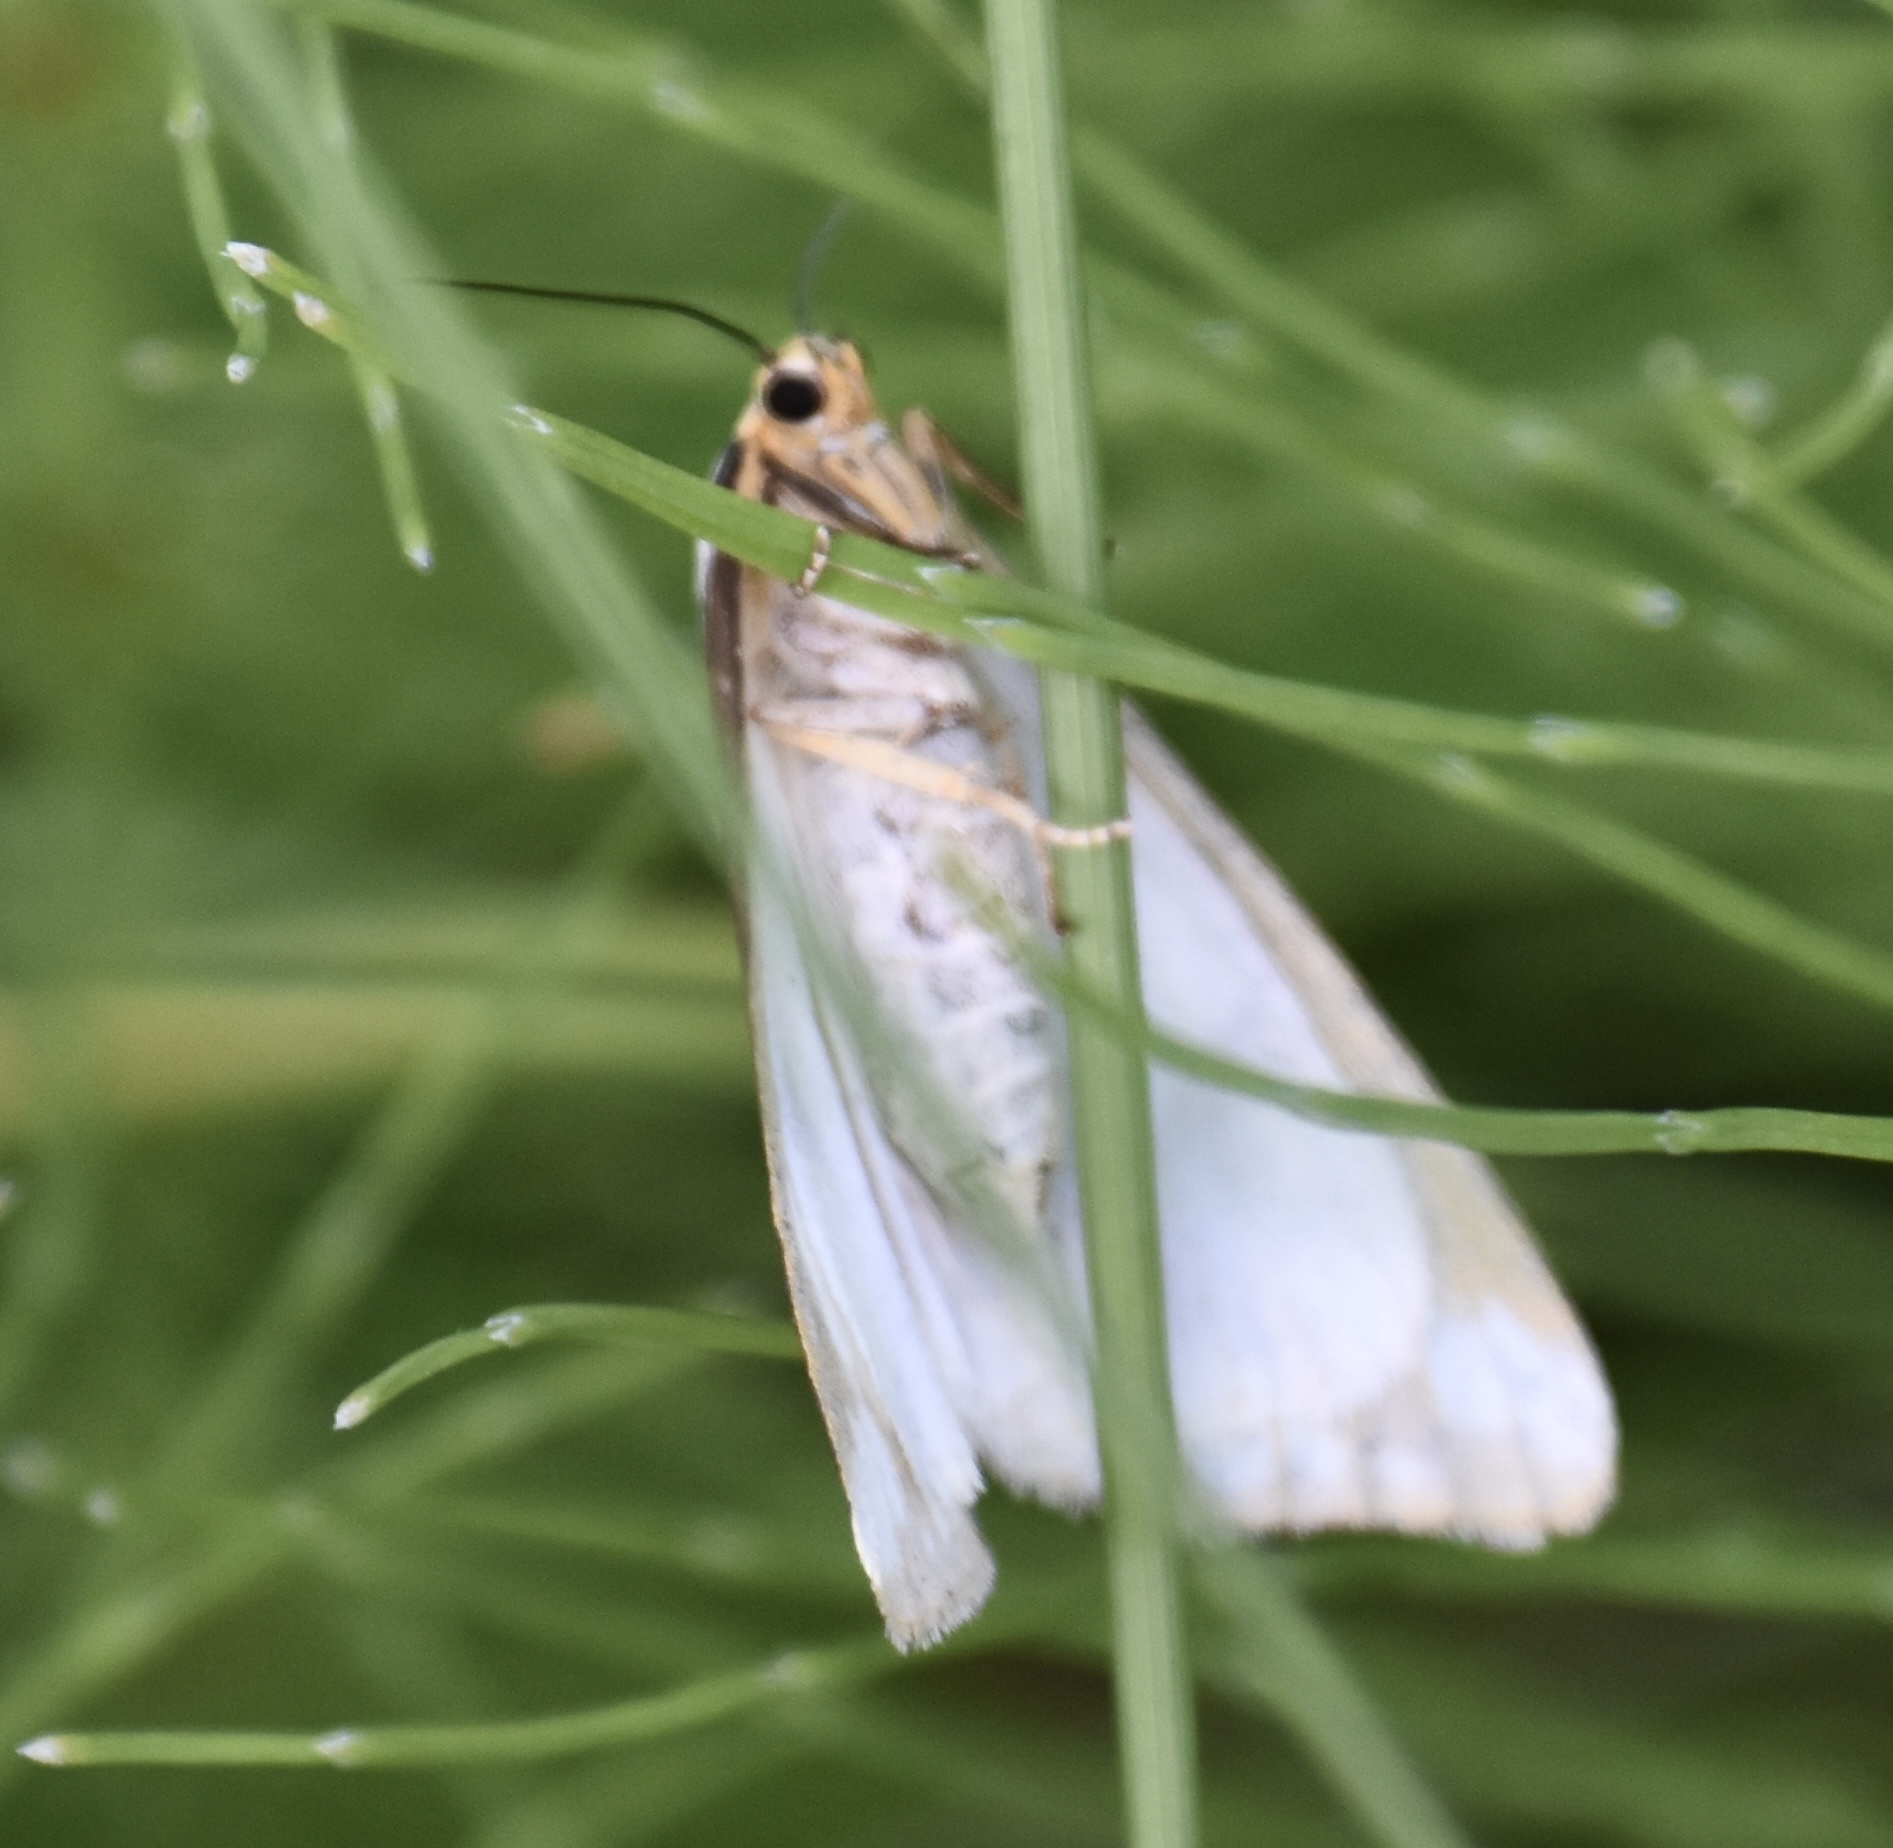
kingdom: Animalia
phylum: Arthropoda
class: Insecta
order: Lepidoptera
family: Erebidae
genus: Haploa
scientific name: Haploa lecontei
